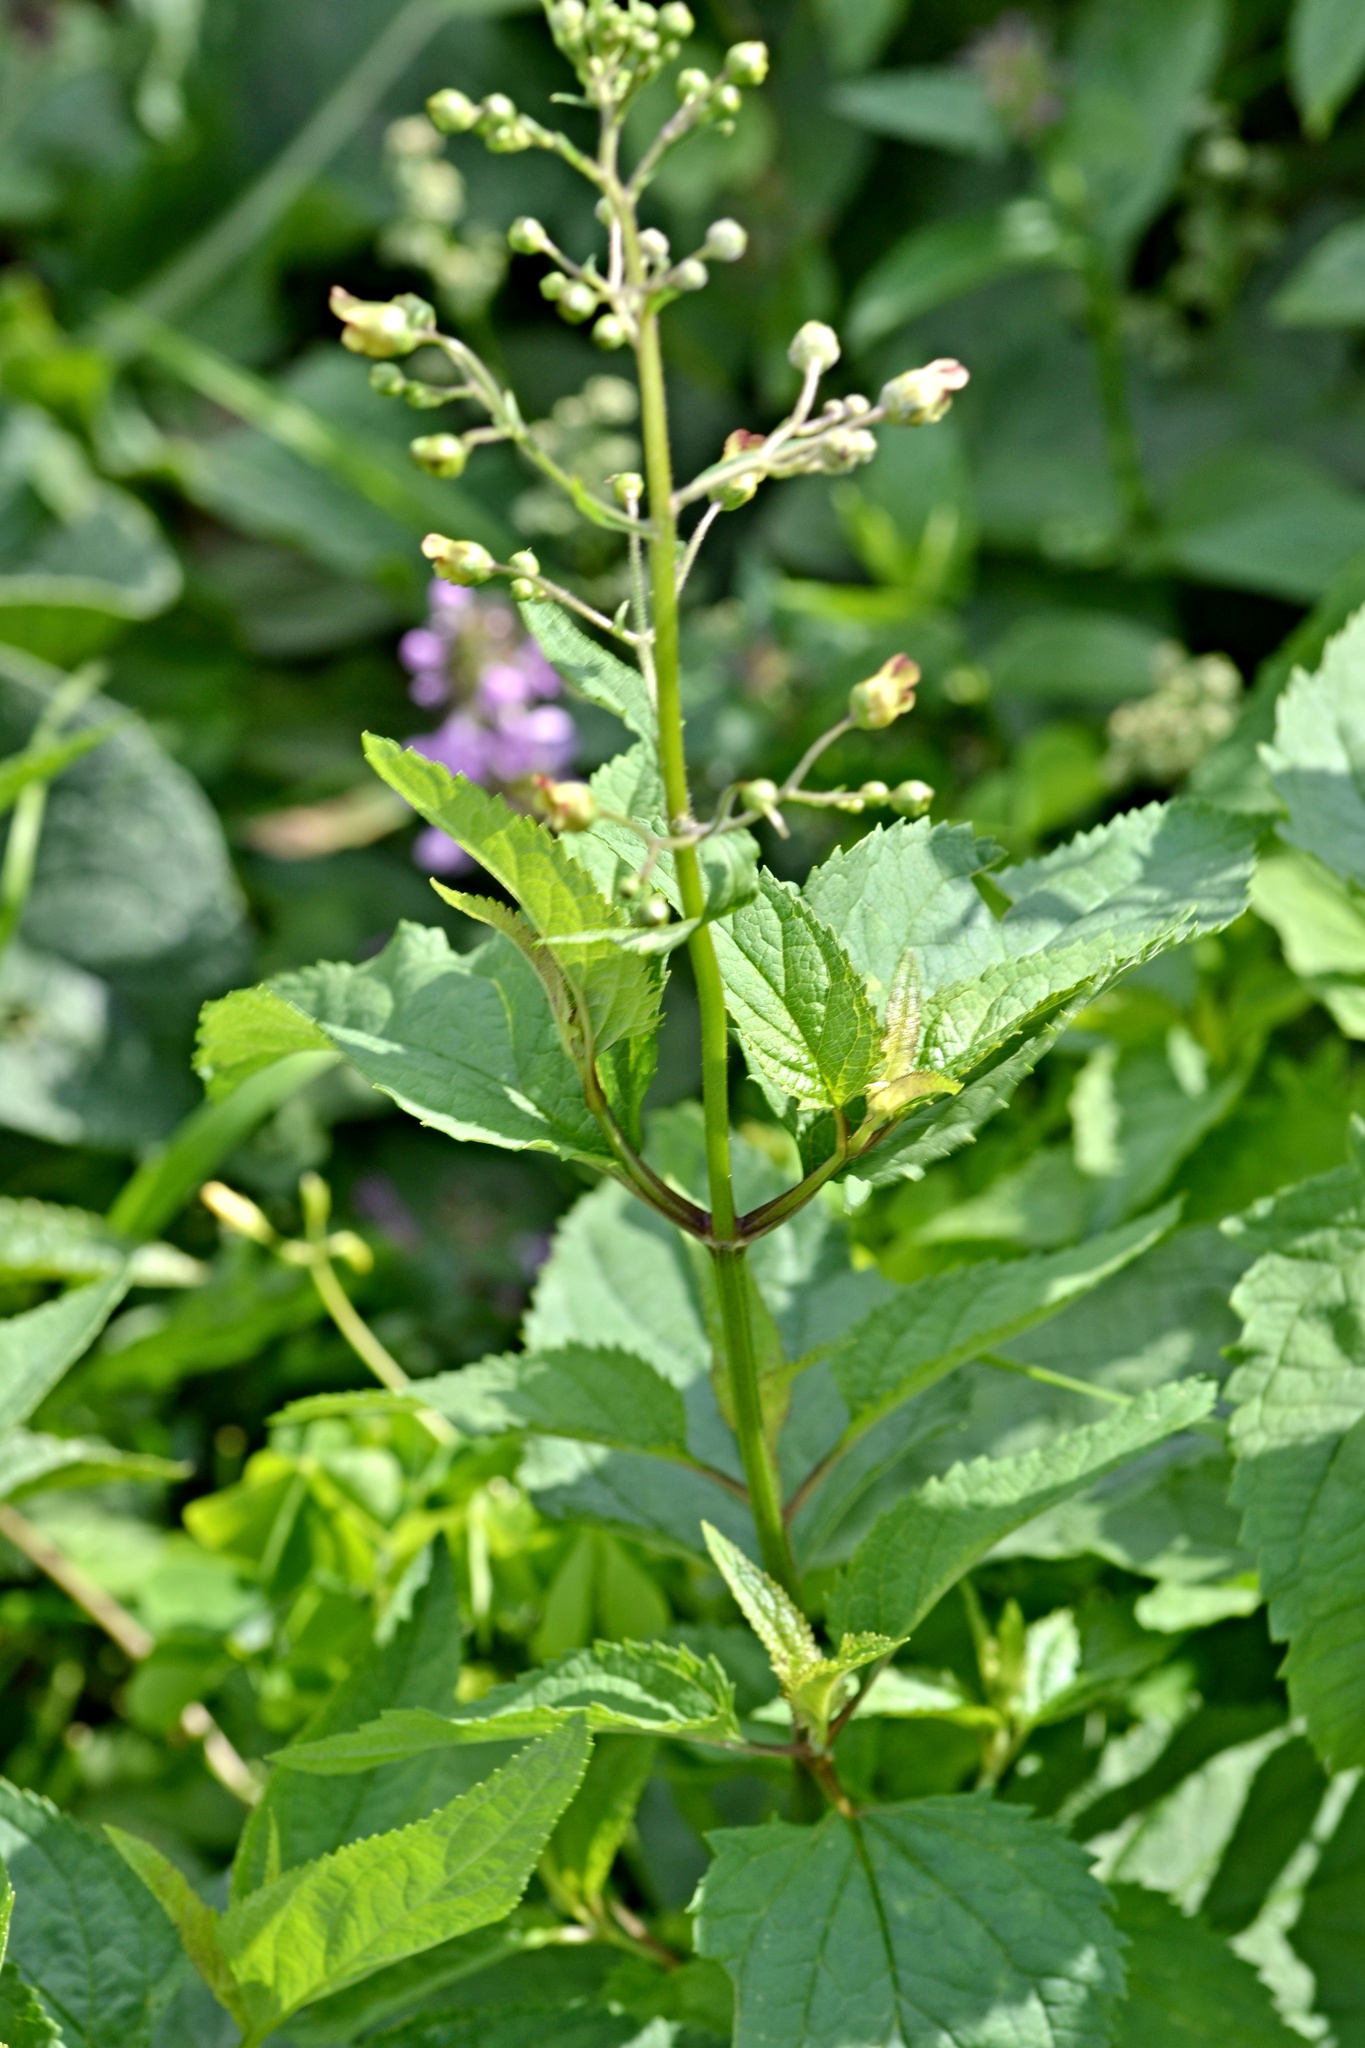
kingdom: Plantae
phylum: Tracheophyta
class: Magnoliopsida
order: Lamiales
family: Scrophulariaceae
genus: Scrophularia
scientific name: Scrophularia nodosa
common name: Common figwort
